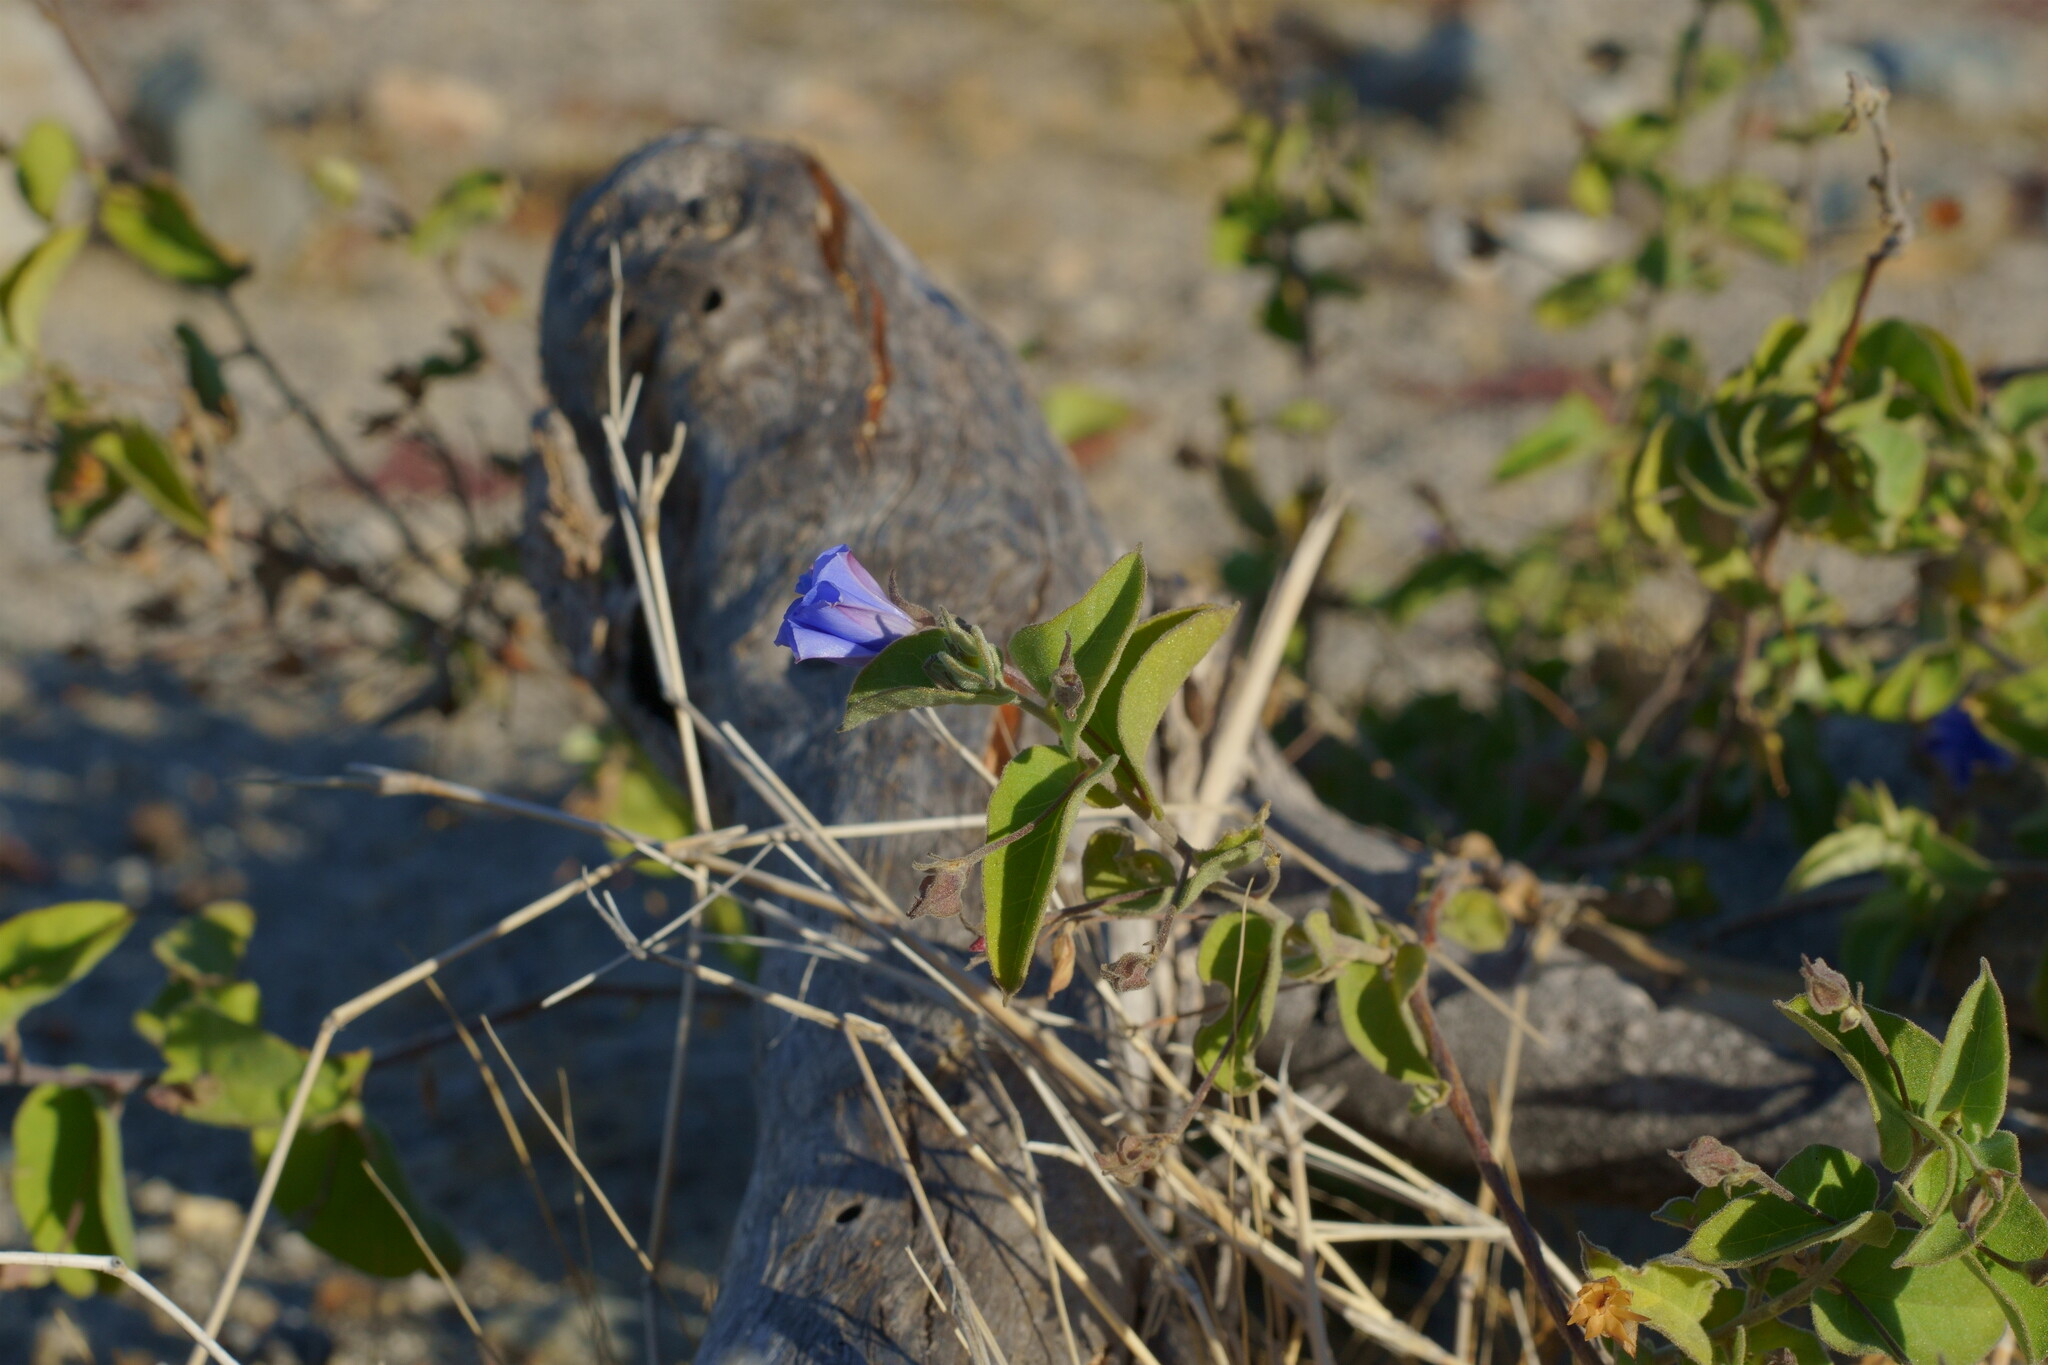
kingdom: Plantae
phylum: Tracheophyta
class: Magnoliopsida
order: Solanales
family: Convolvulaceae
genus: Jacquemontia
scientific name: Jacquemontia abutiloides
